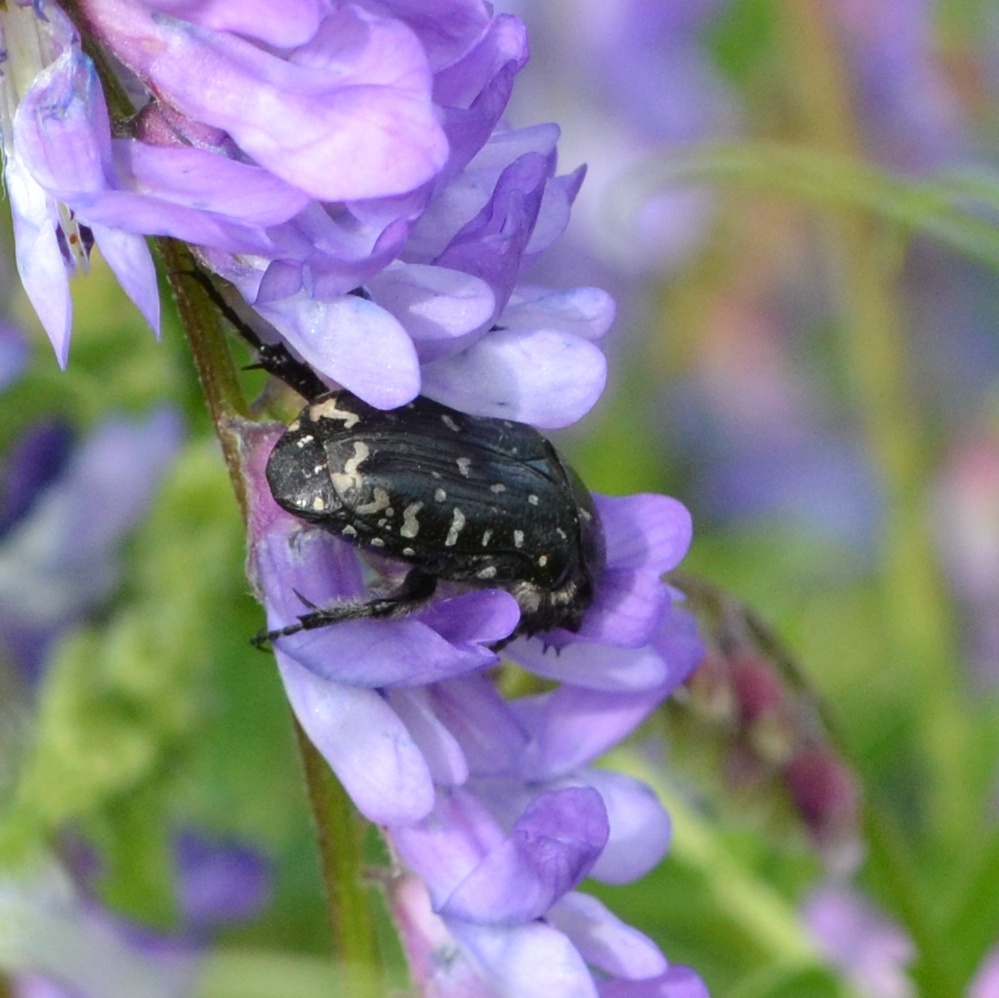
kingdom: Animalia
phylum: Arthropoda
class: Insecta
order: Coleoptera
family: Scarabaeidae
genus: Oxythyrea
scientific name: Oxythyrea funesta
